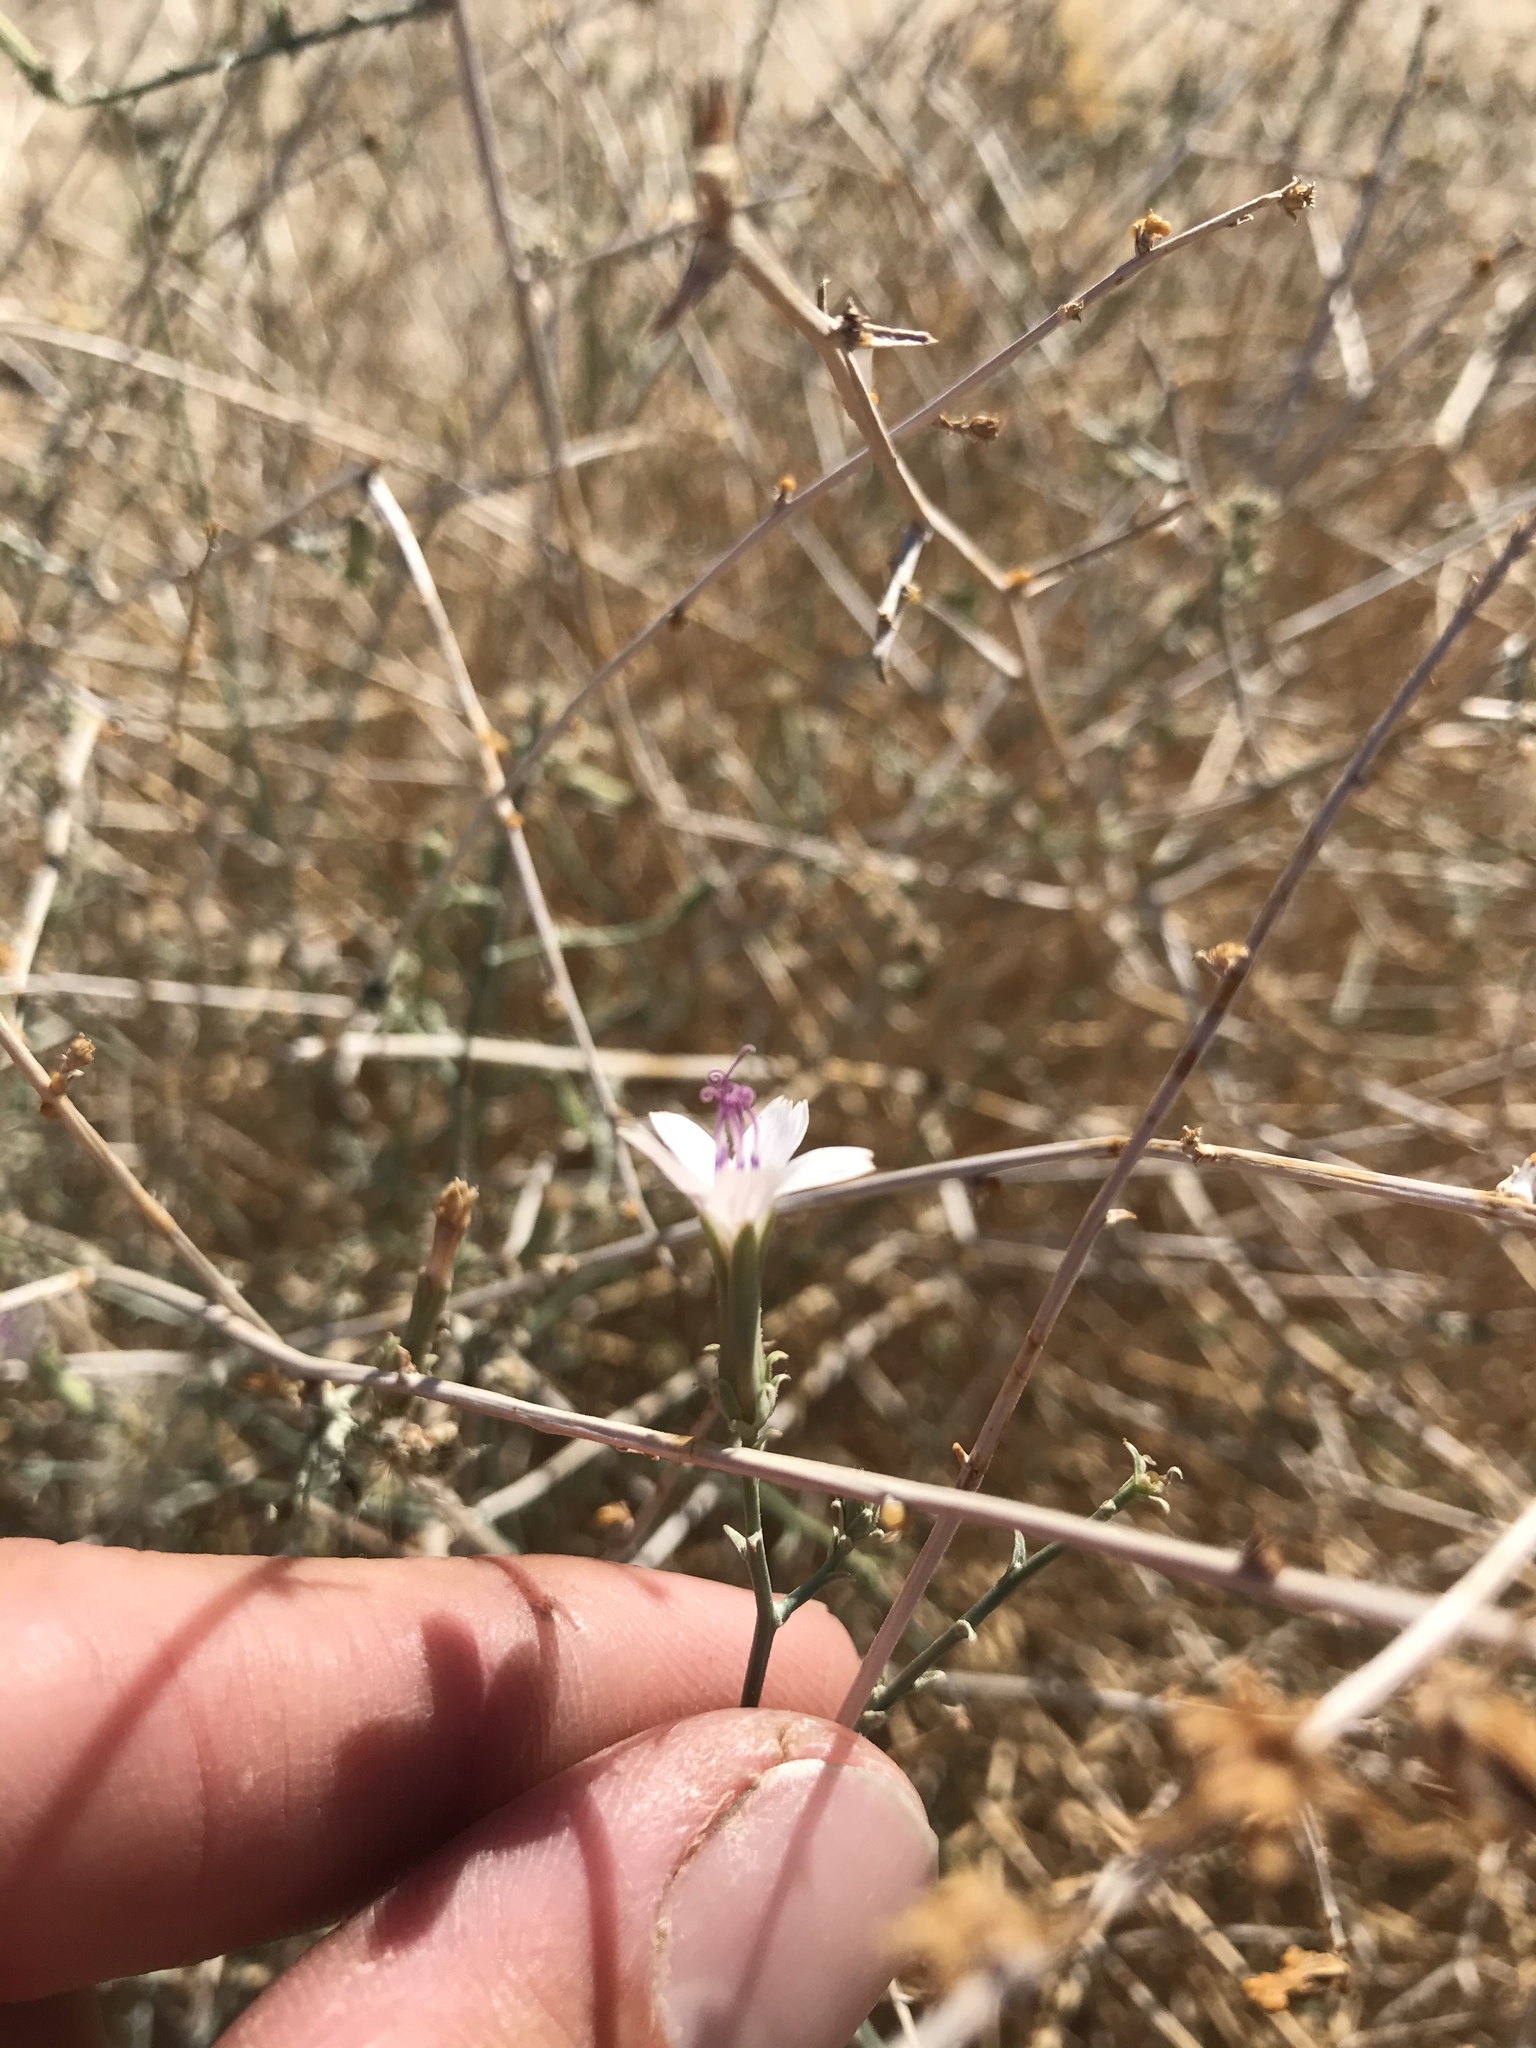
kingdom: Plantae
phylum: Tracheophyta
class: Magnoliopsida
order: Asterales
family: Asteraceae
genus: Stephanomeria
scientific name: Stephanomeria pauciflora
